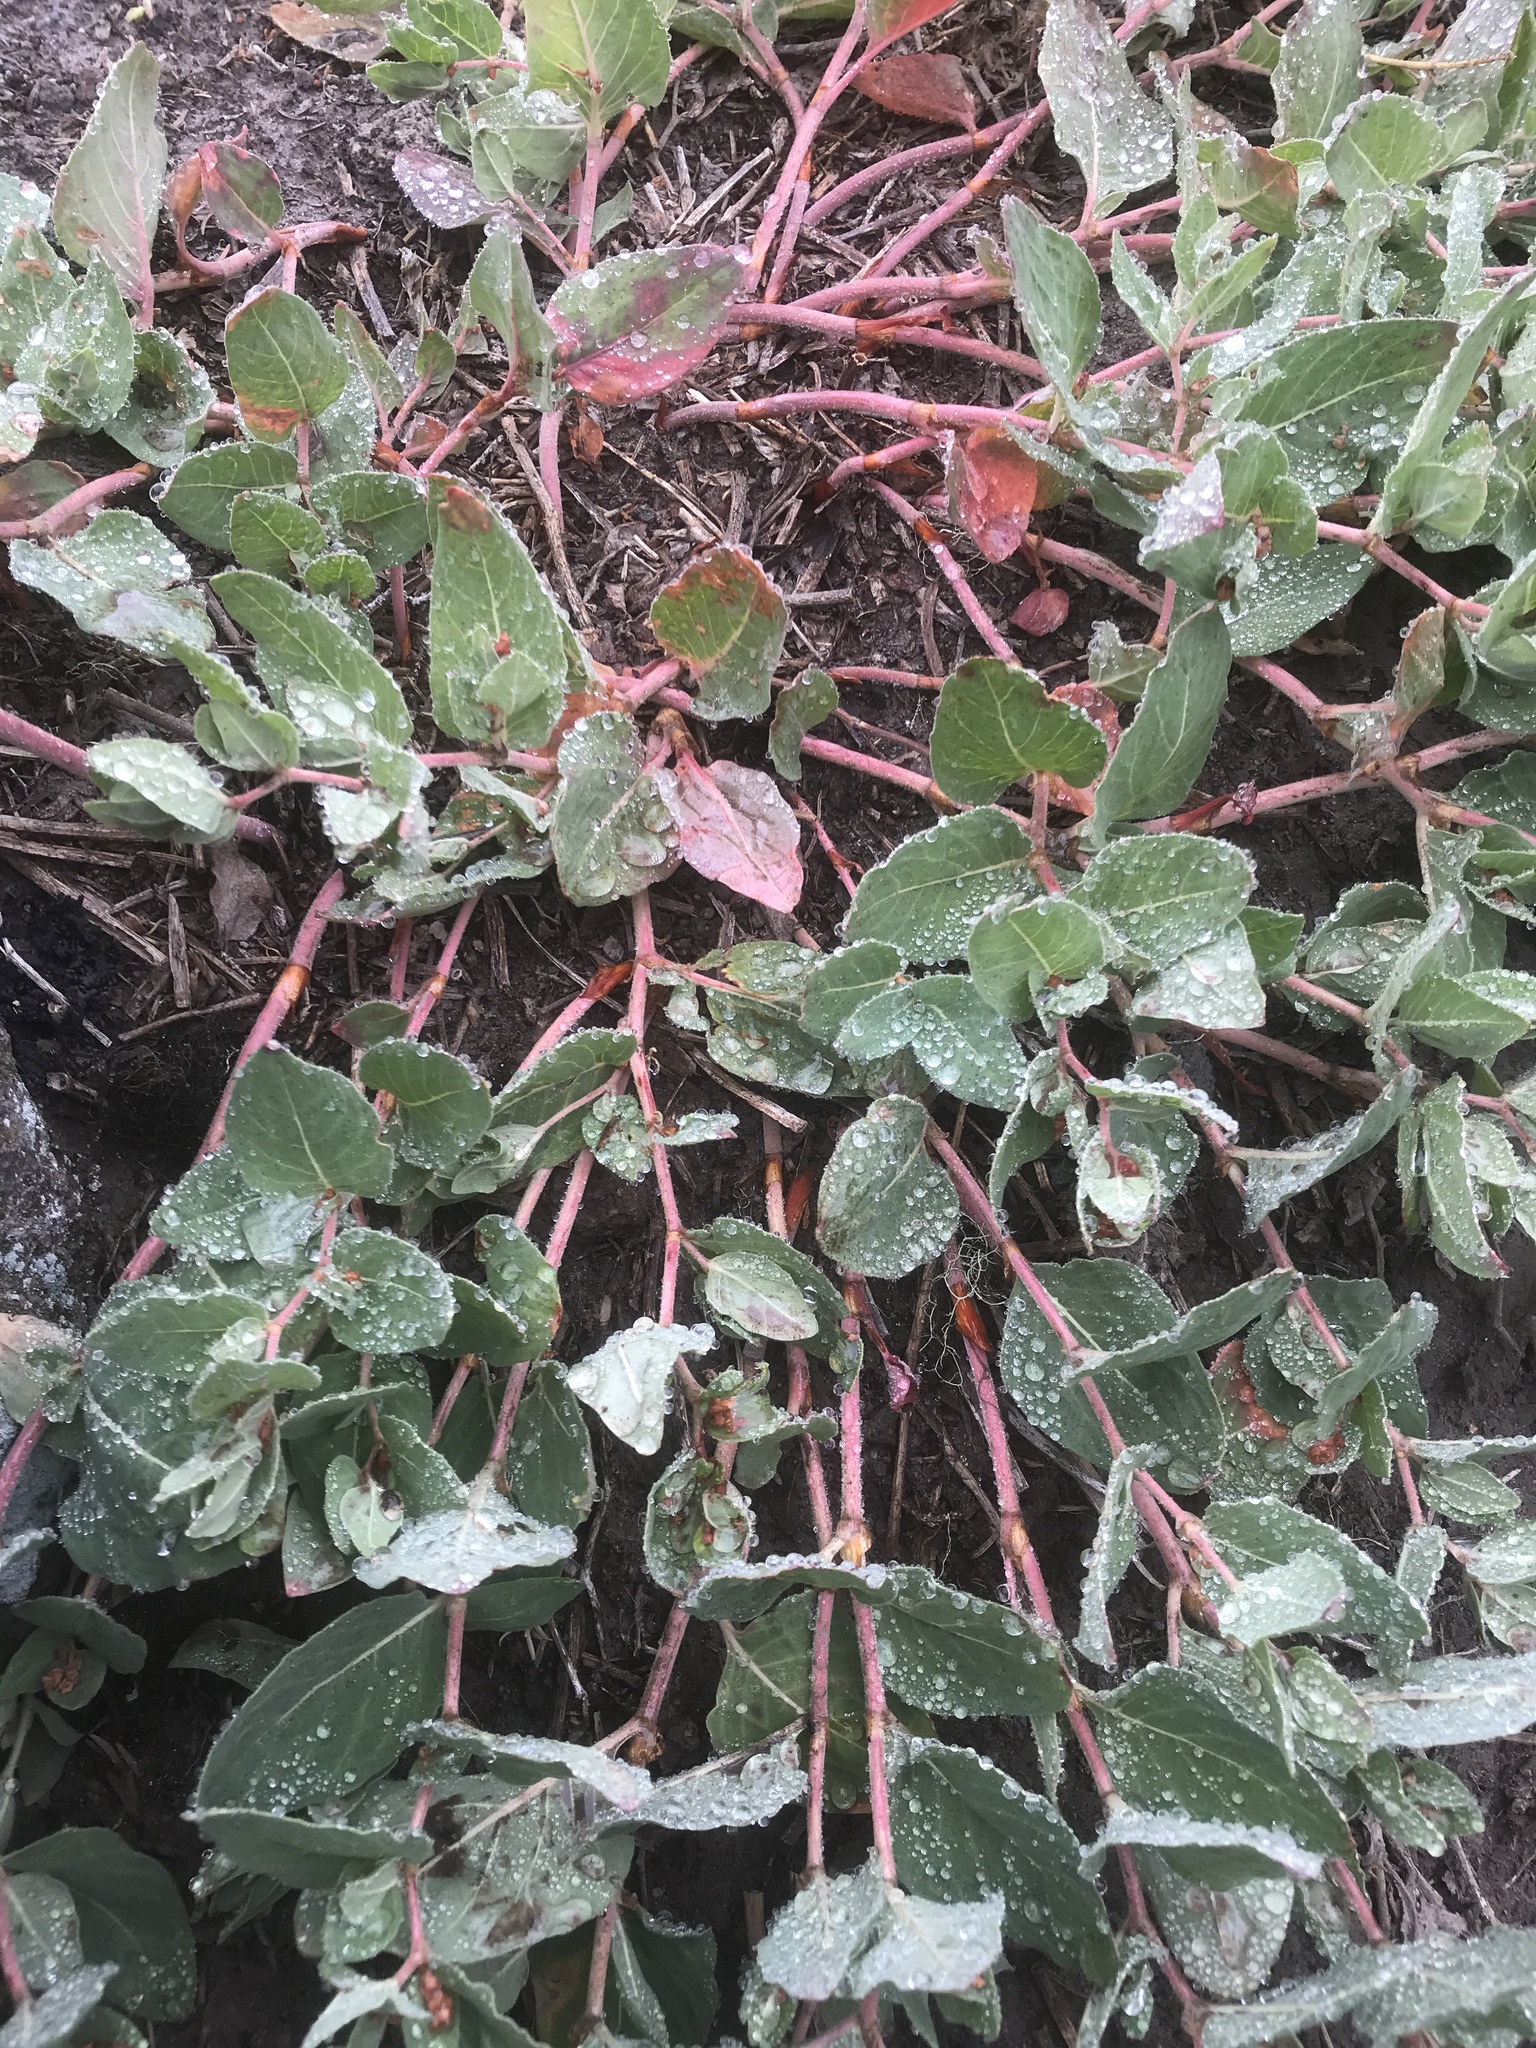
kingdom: Plantae
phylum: Tracheophyta
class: Magnoliopsida
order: Caryophyllales
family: Polygonaceae
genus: Koenigia
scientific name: Koenigia davisiae
